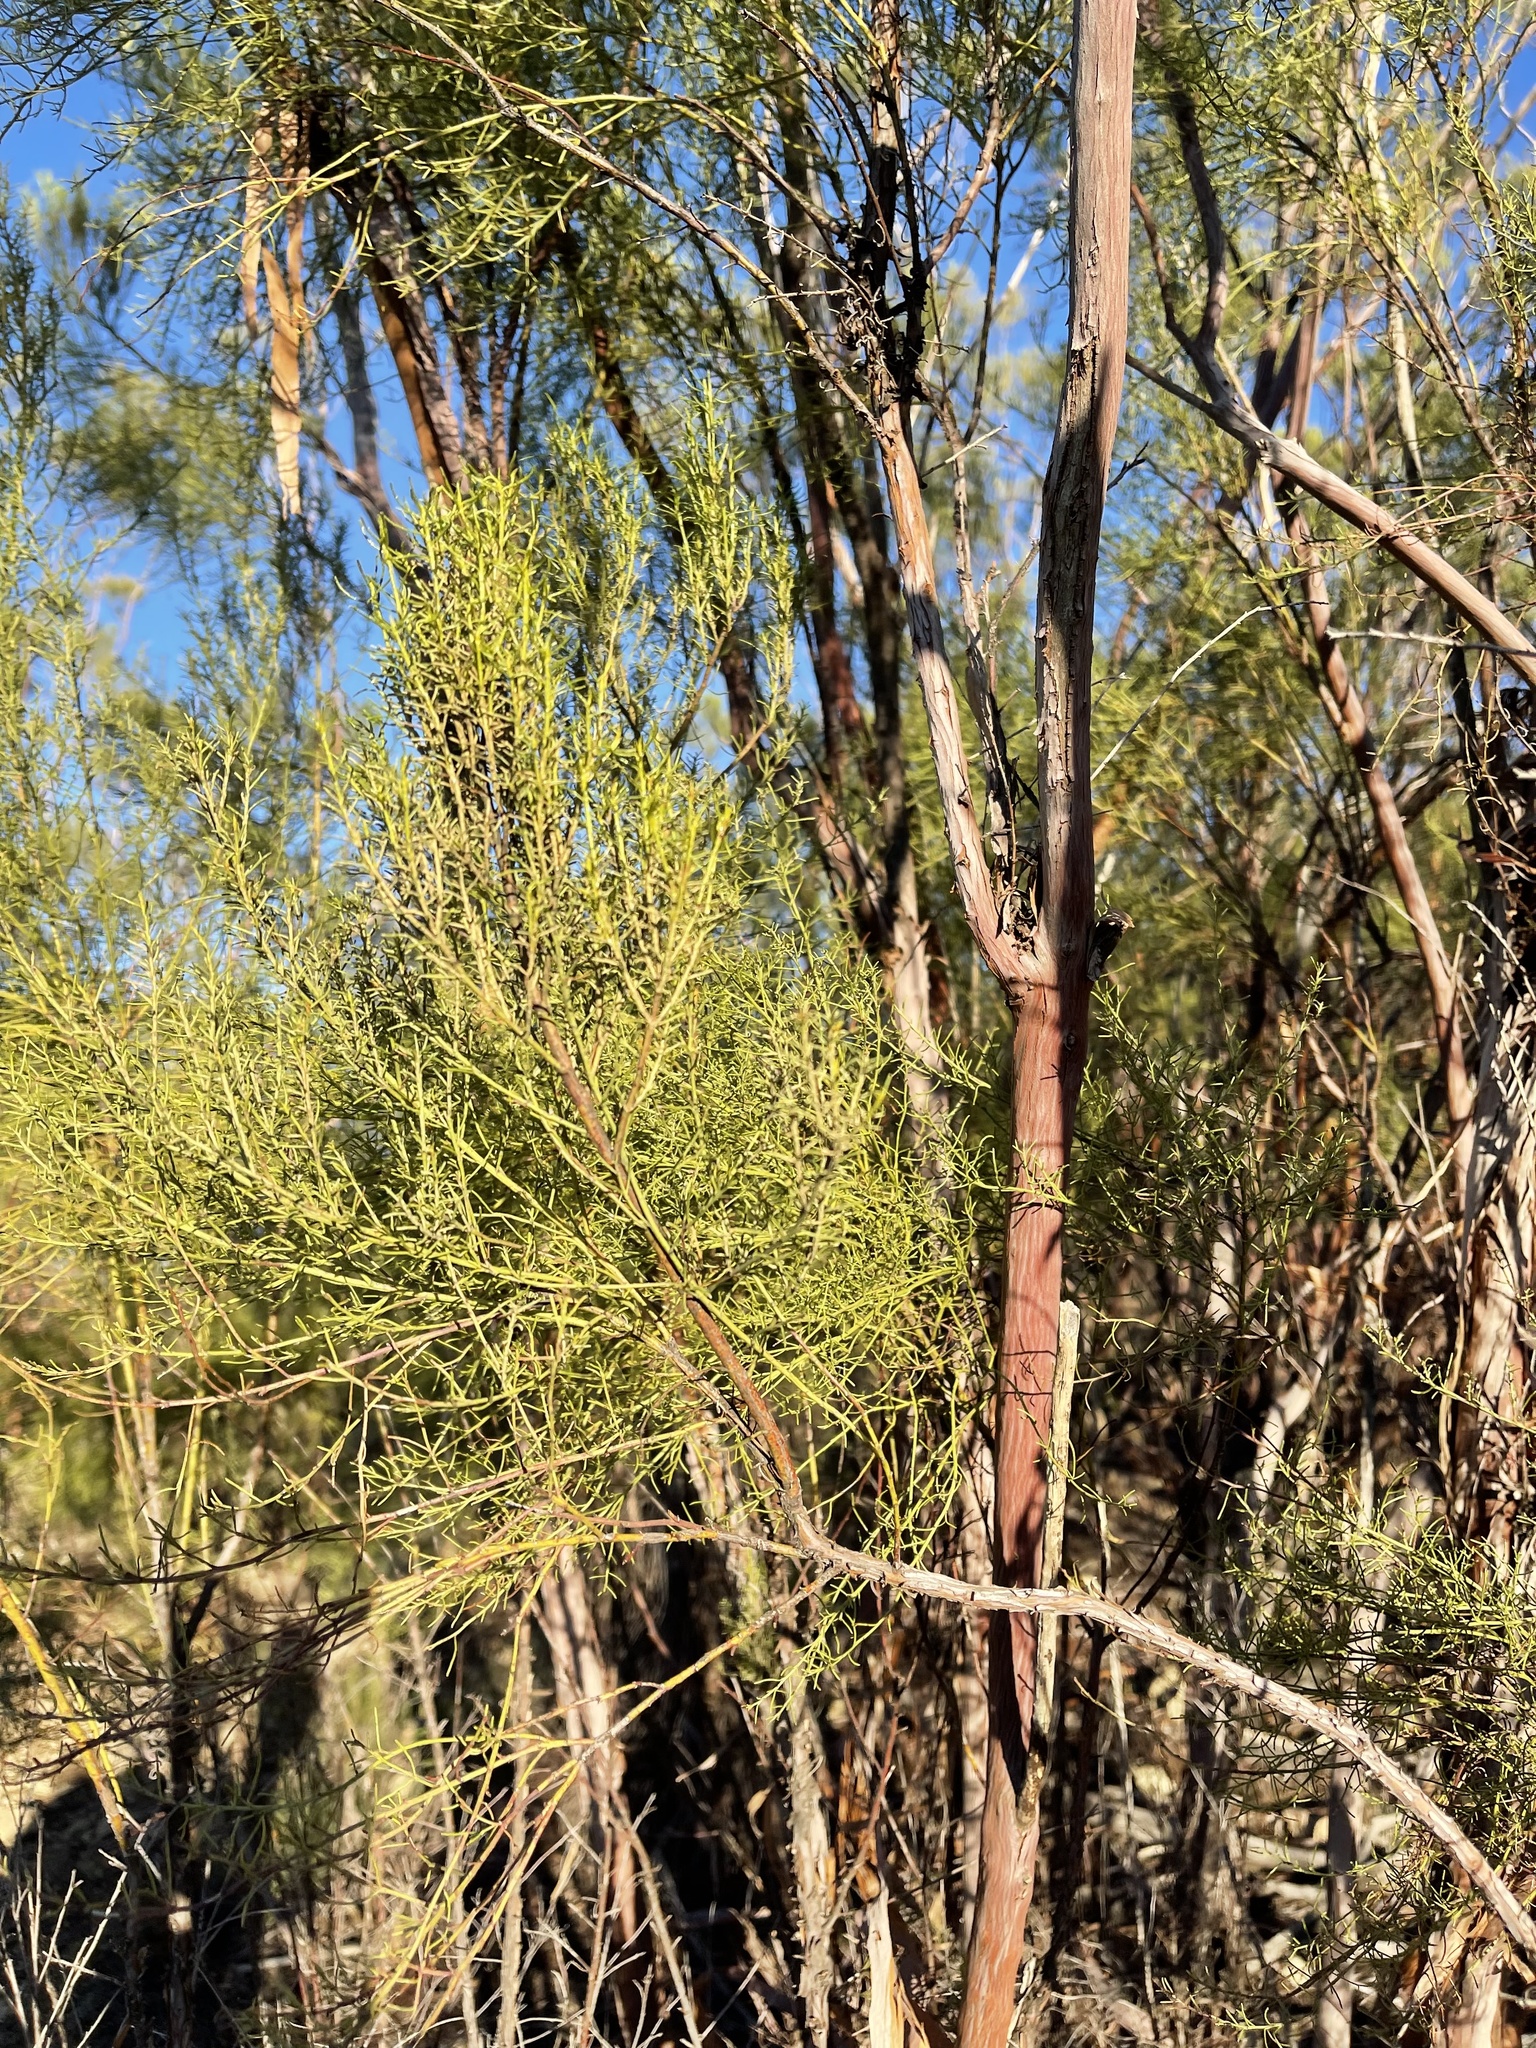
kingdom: Plantae
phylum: Tracheophyta
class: Magnoliopsida
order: Rosales
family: Rosaceae
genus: Adenostoma
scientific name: Adenostoma sparsifolium
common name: Red shank
